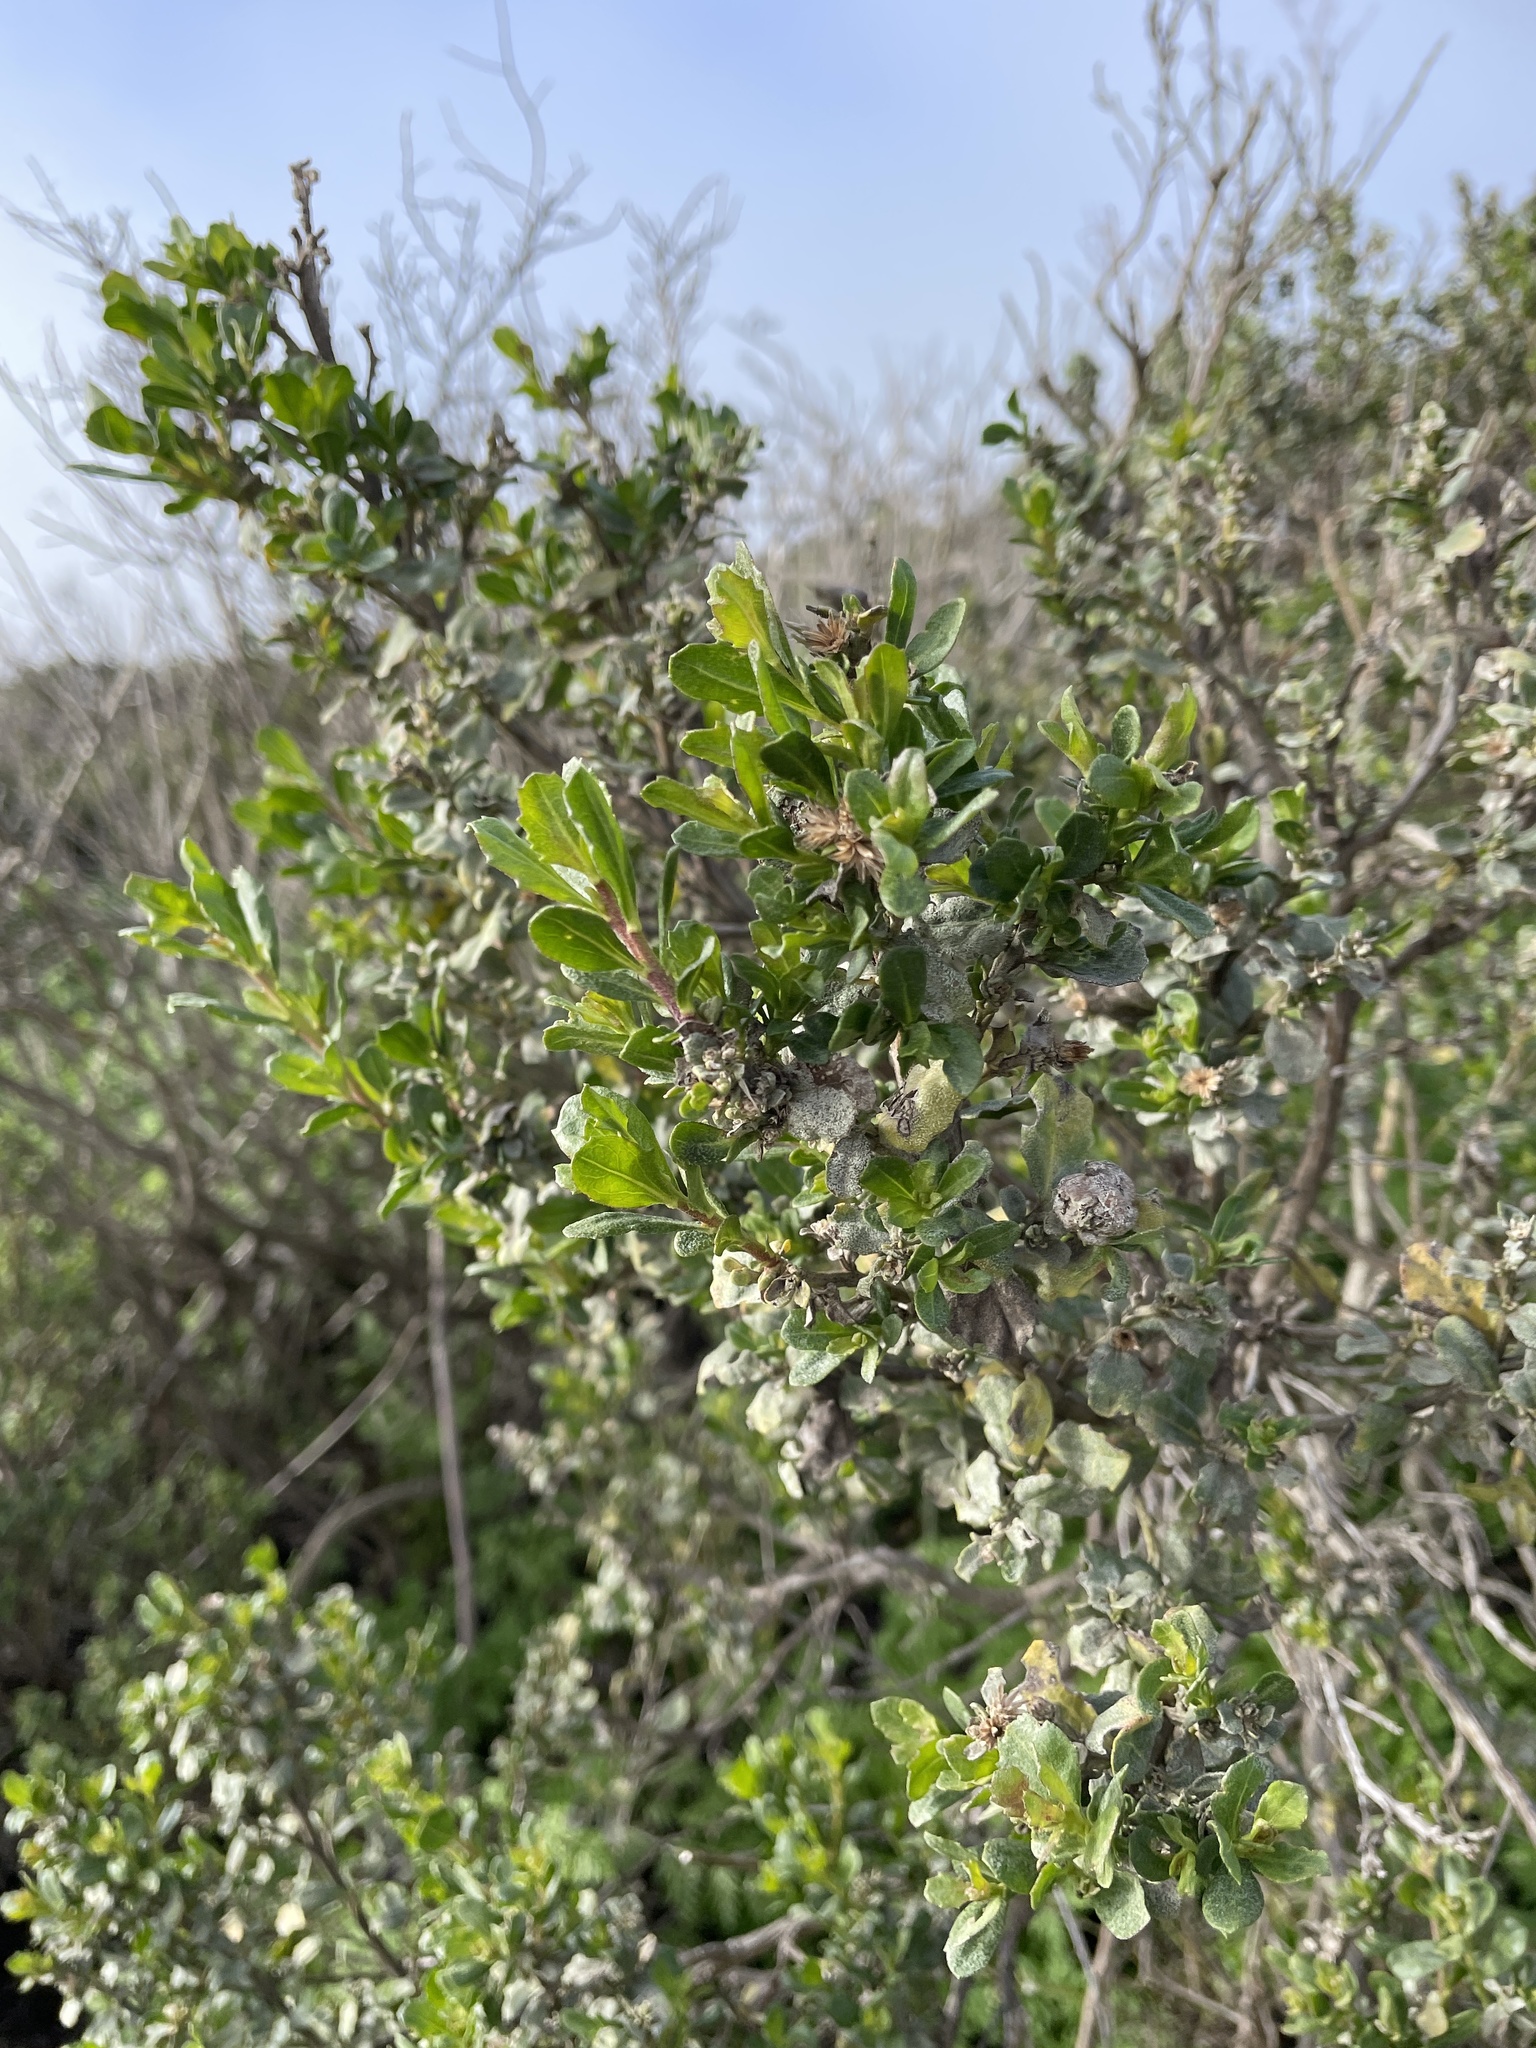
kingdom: Plantae
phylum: Tracheophyta
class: Magnoliopsida
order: Asterales
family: Asteraceae
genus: Baccharis
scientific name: Baccharis pilularis
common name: Coyotebrush
